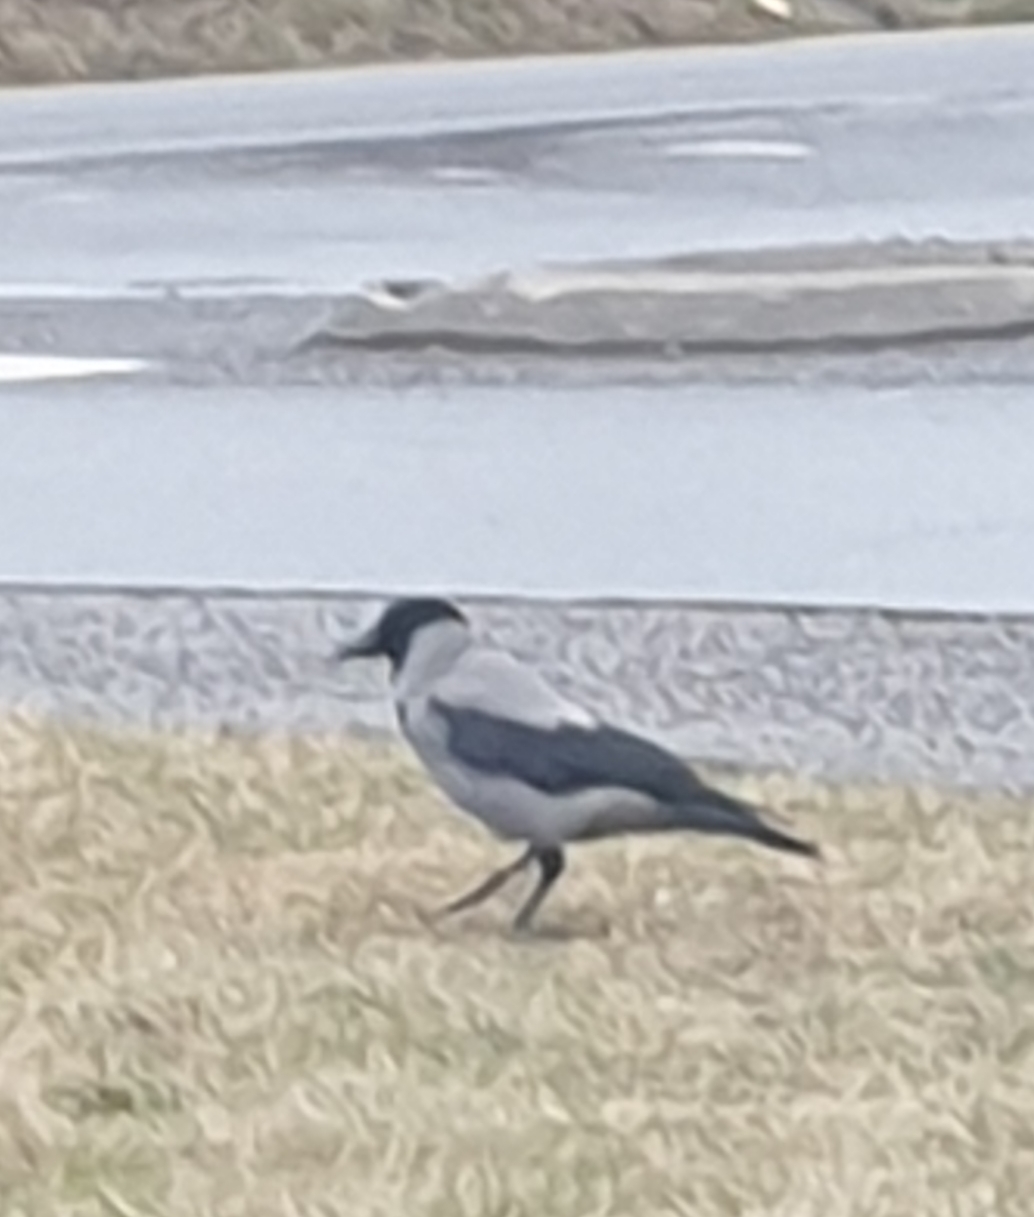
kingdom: Animalia
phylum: Chordata
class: Aves
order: Passeriformes
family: Corvidae
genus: Corvus
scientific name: Corvus cornix
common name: Hooded crow
